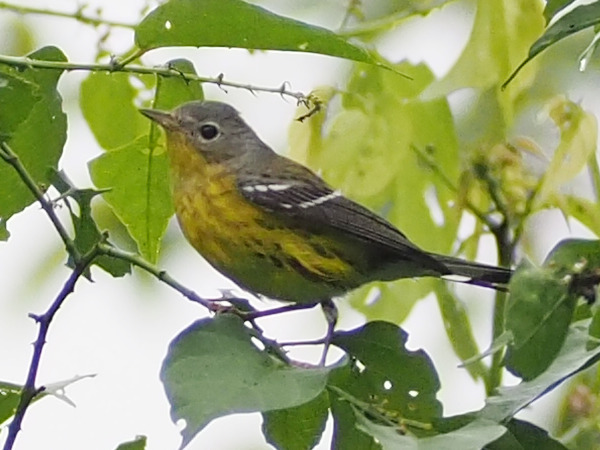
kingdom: Animalia
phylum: Chordata
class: Aves
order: Passeriformes
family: Parulidae
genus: Setophaga
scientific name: Setophaga magnolia
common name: Magnolia warbler
